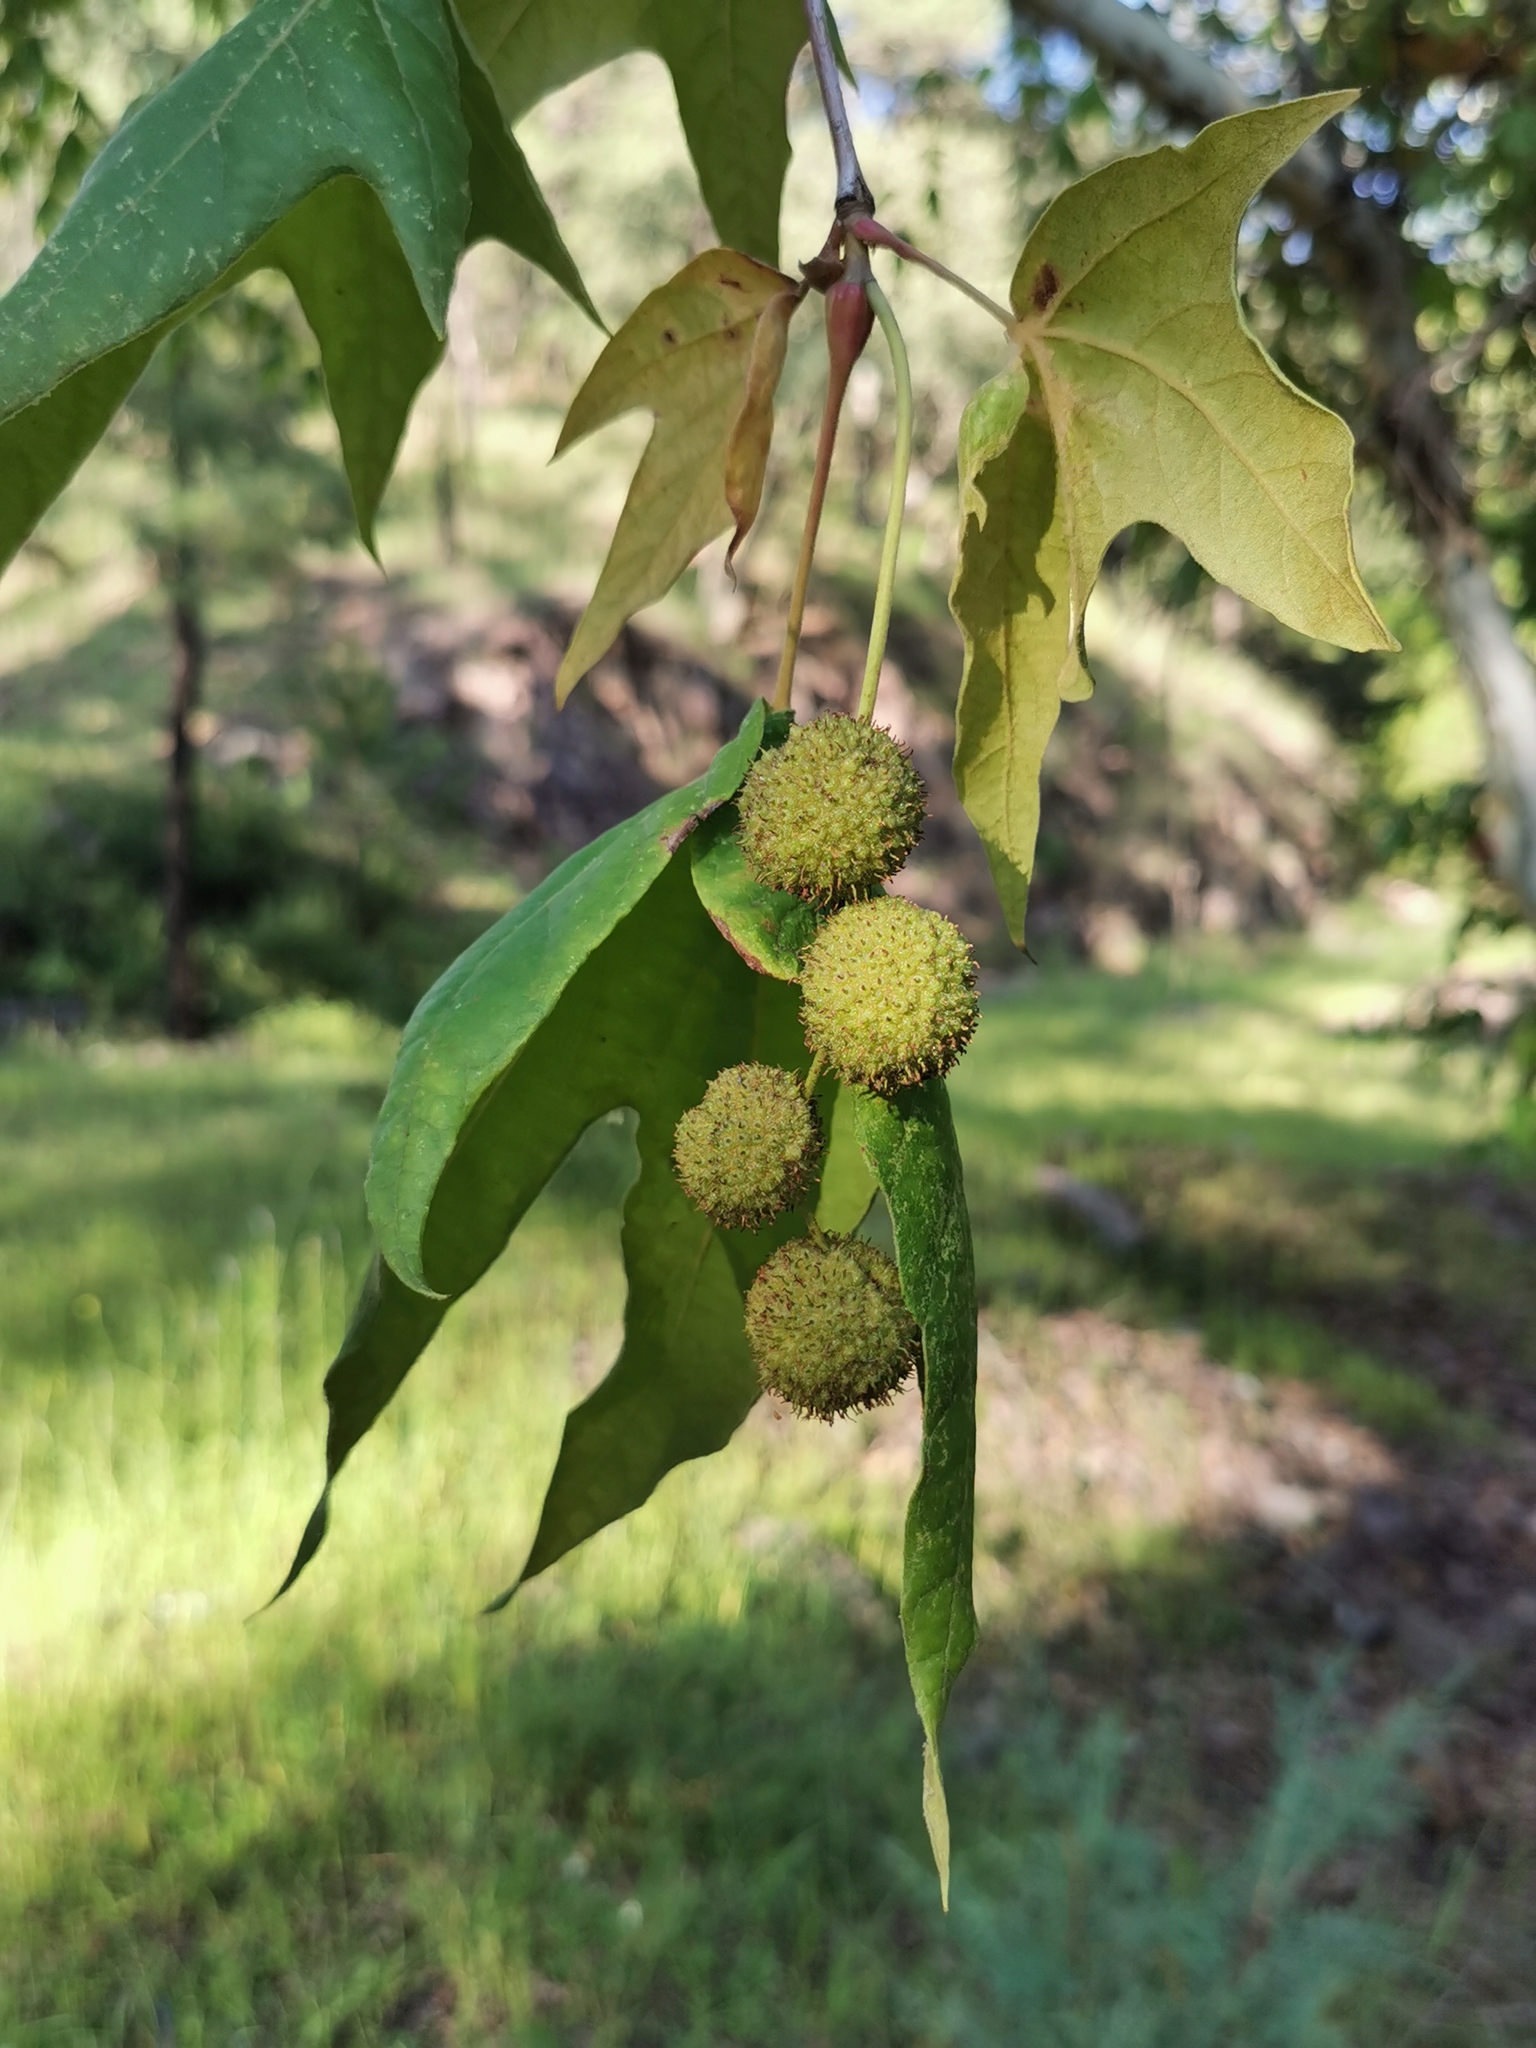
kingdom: Plantae
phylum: Tracheophyta
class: Magnoliopsida
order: Proteales
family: Platanaceae
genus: Platanus
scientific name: Platanus wrightii
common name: Arizona sycamore
